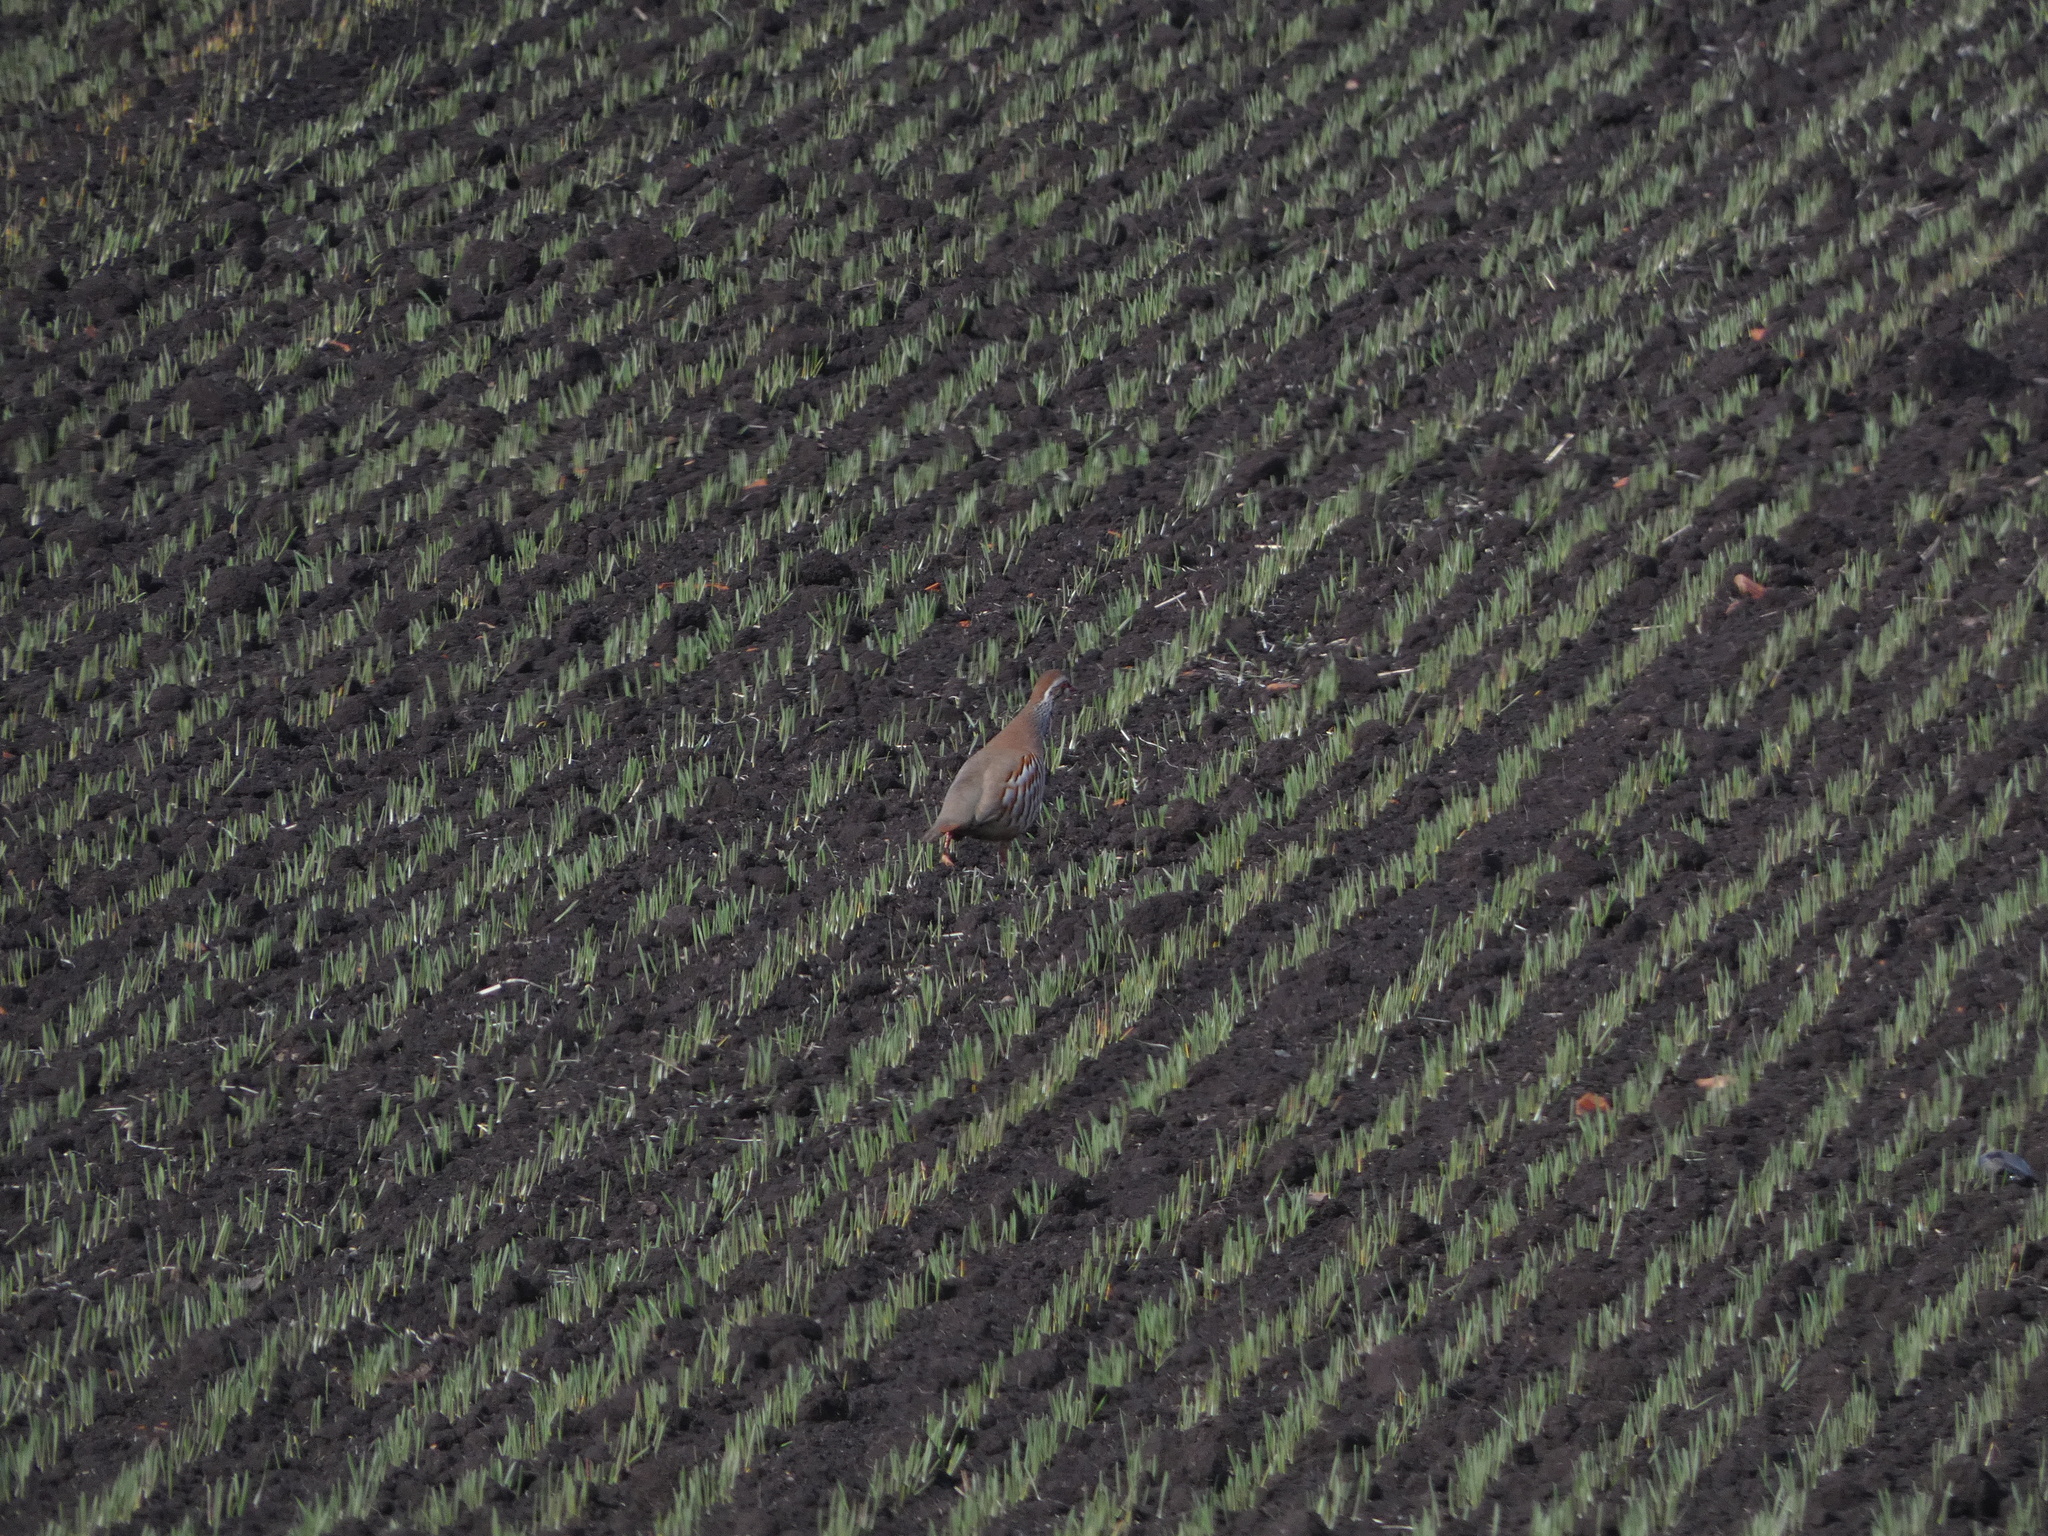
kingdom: Animalia
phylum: Chordata
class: Aves
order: Galliformes
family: Phasianidae
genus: Alectoris
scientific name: Alectoris rufa
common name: Red-legged partridge
